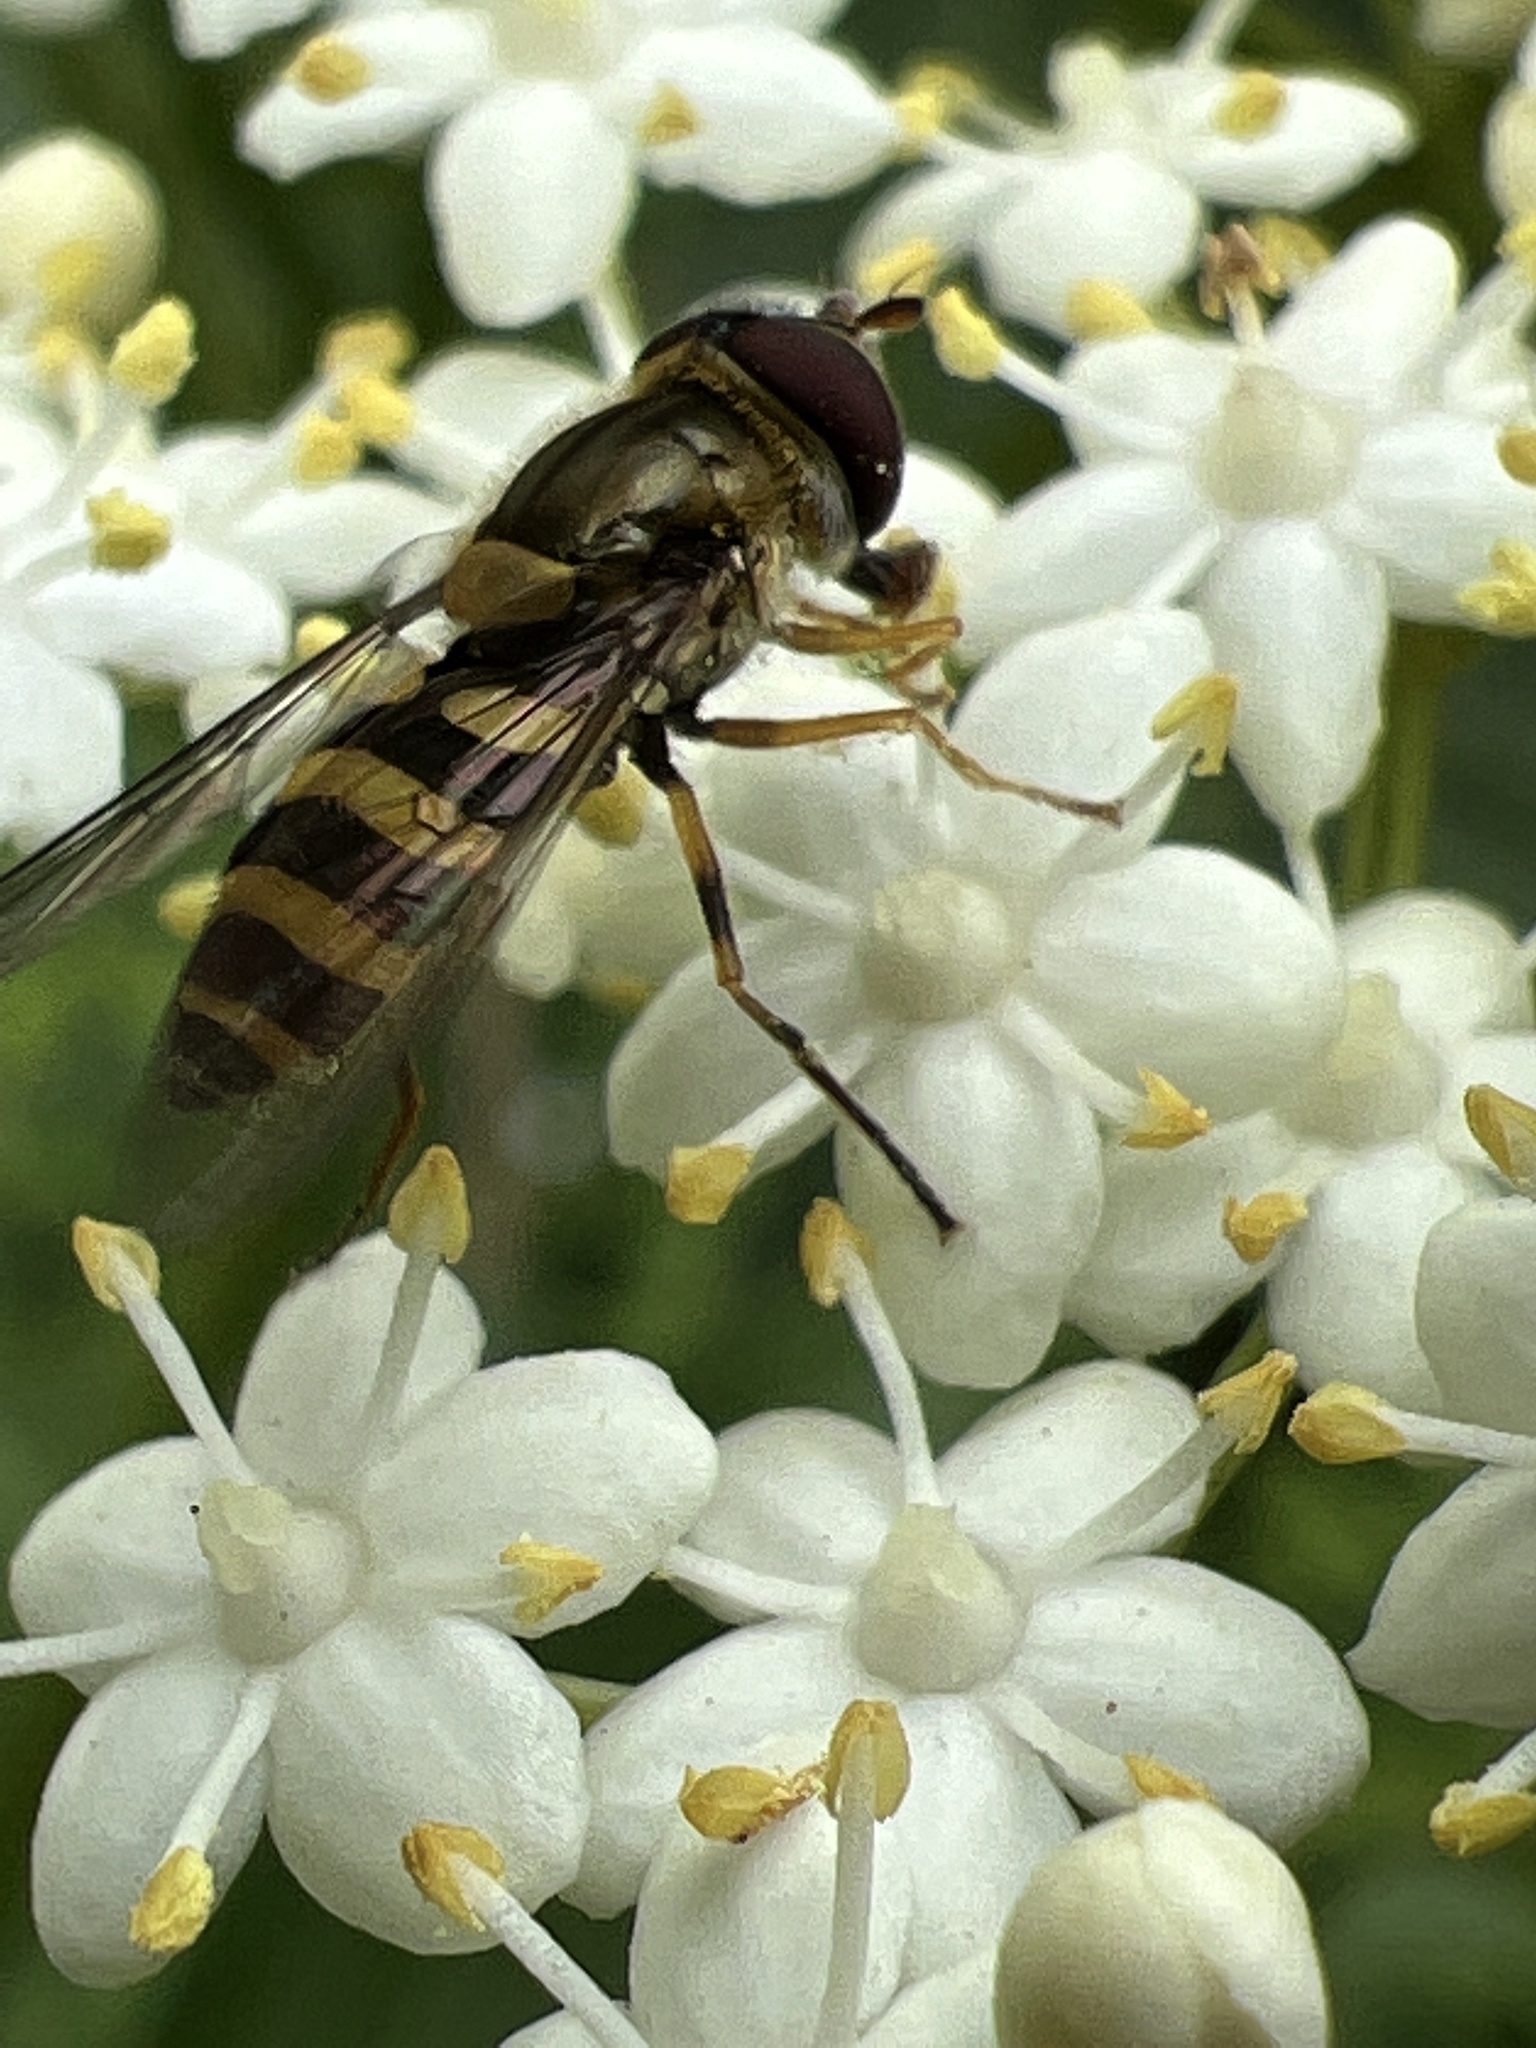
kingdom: Animalia
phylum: Arthropoda
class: Insecta
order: Diptera
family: Syrphidae
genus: Syrphus
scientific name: Syrphus rectus
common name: Yellow-legged flower fly
